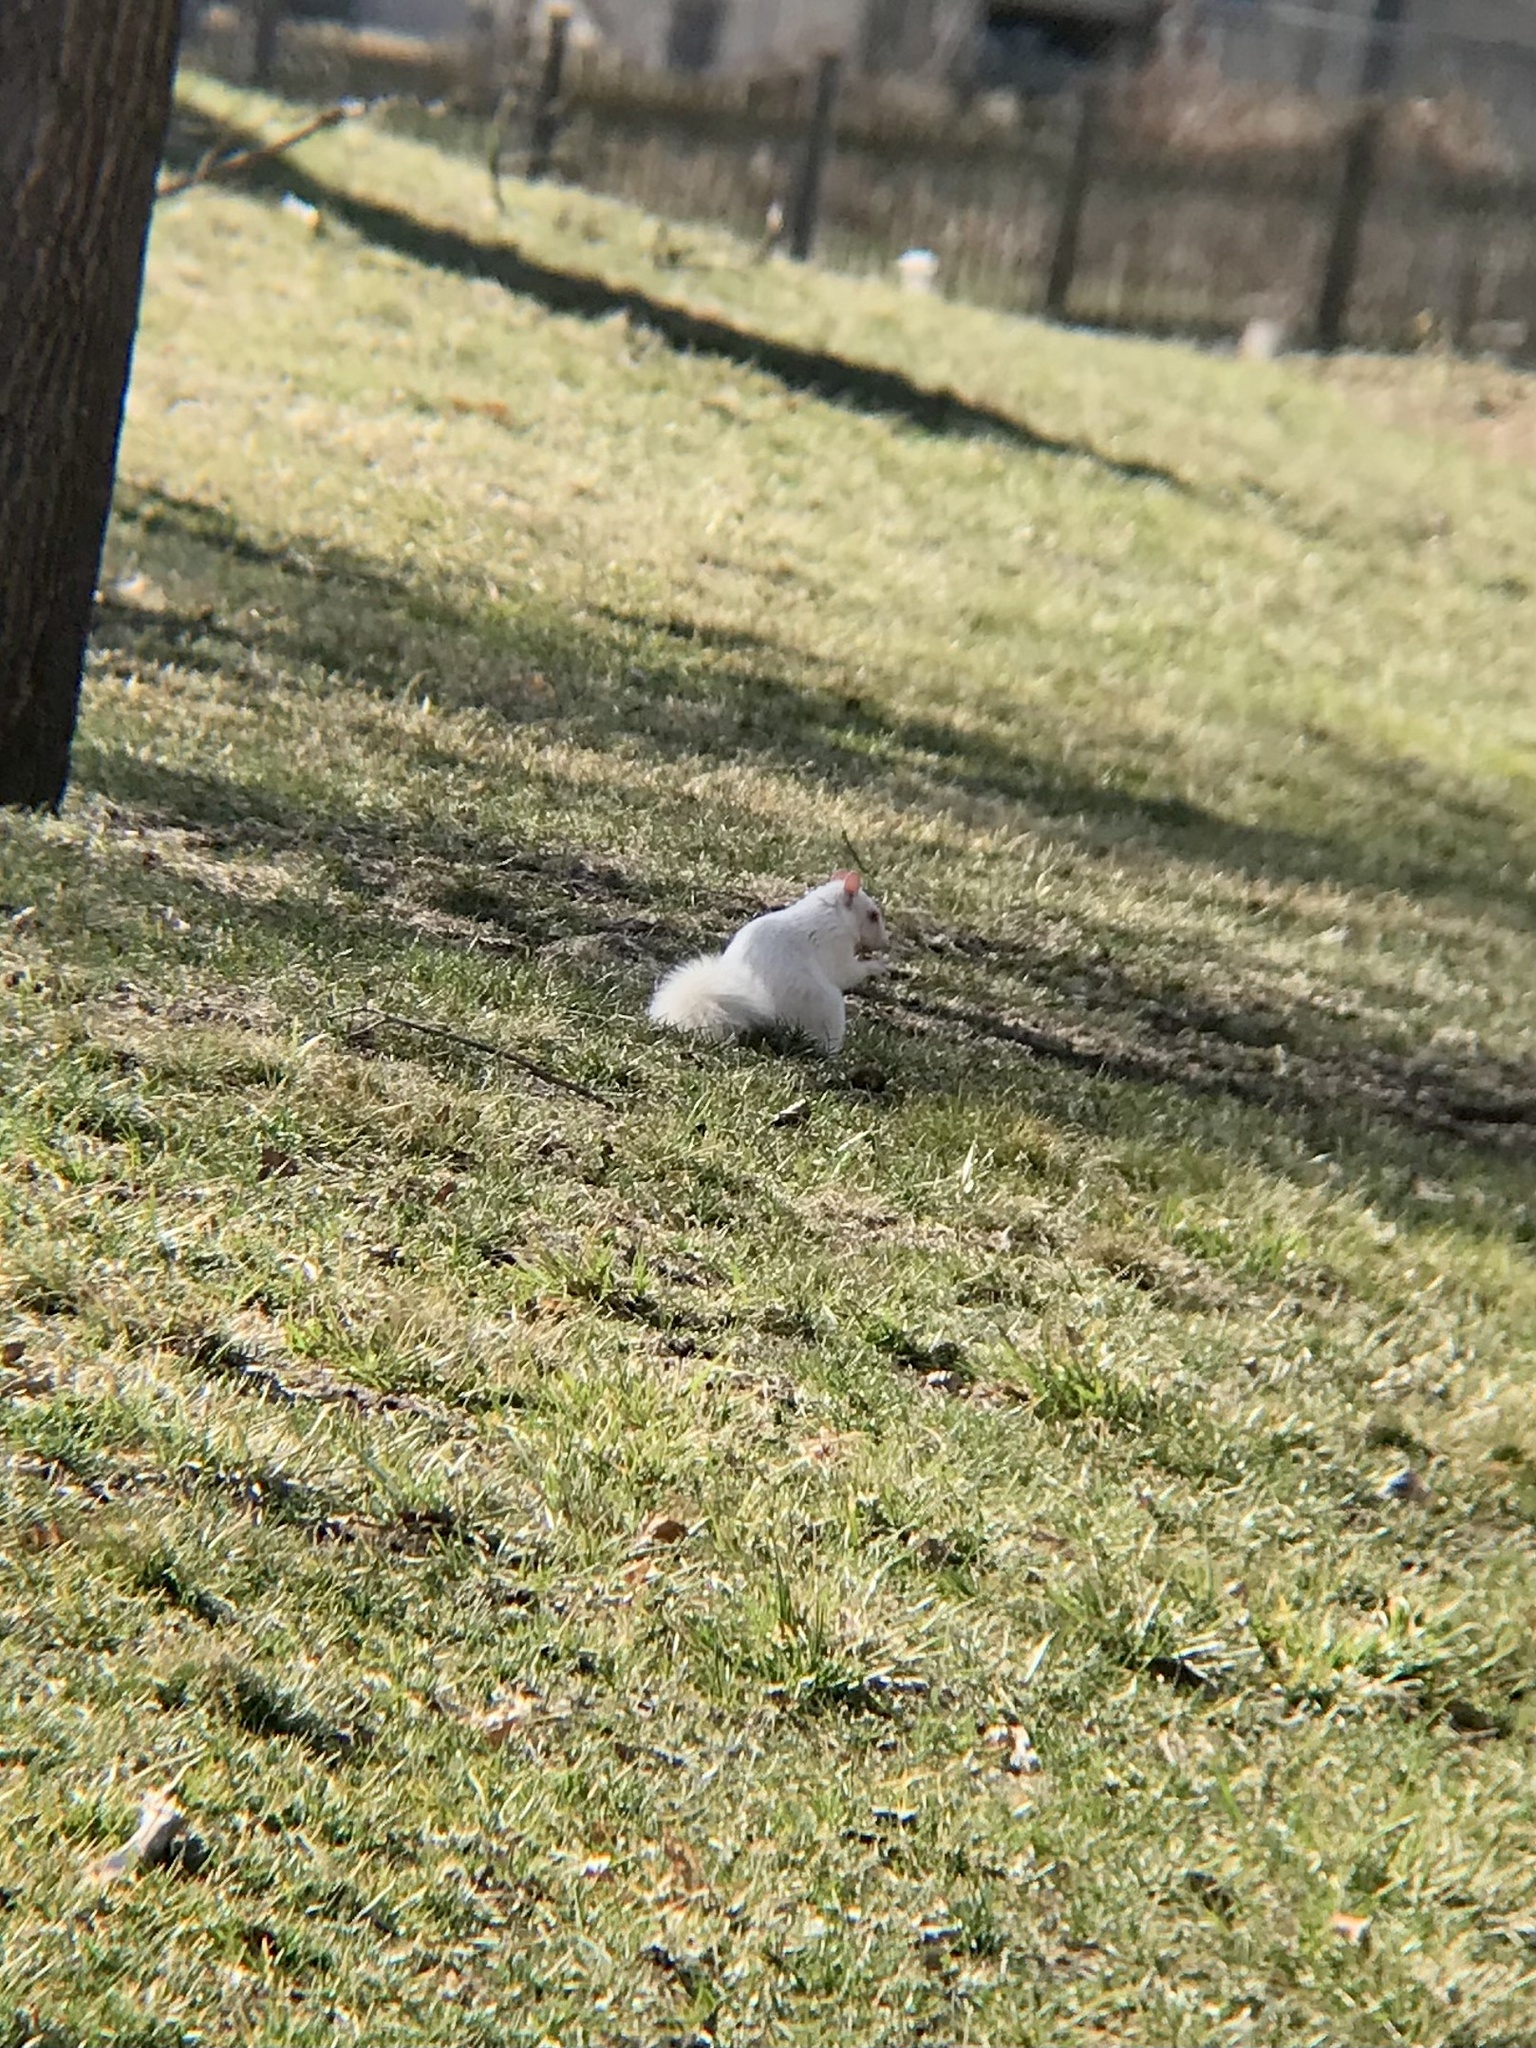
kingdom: Animalia
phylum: Chordata
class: Mammalia
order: Rodentia
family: Sciuridae
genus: Sciurus
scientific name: Sciurus carolinensis
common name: Eastern gray squirrel
